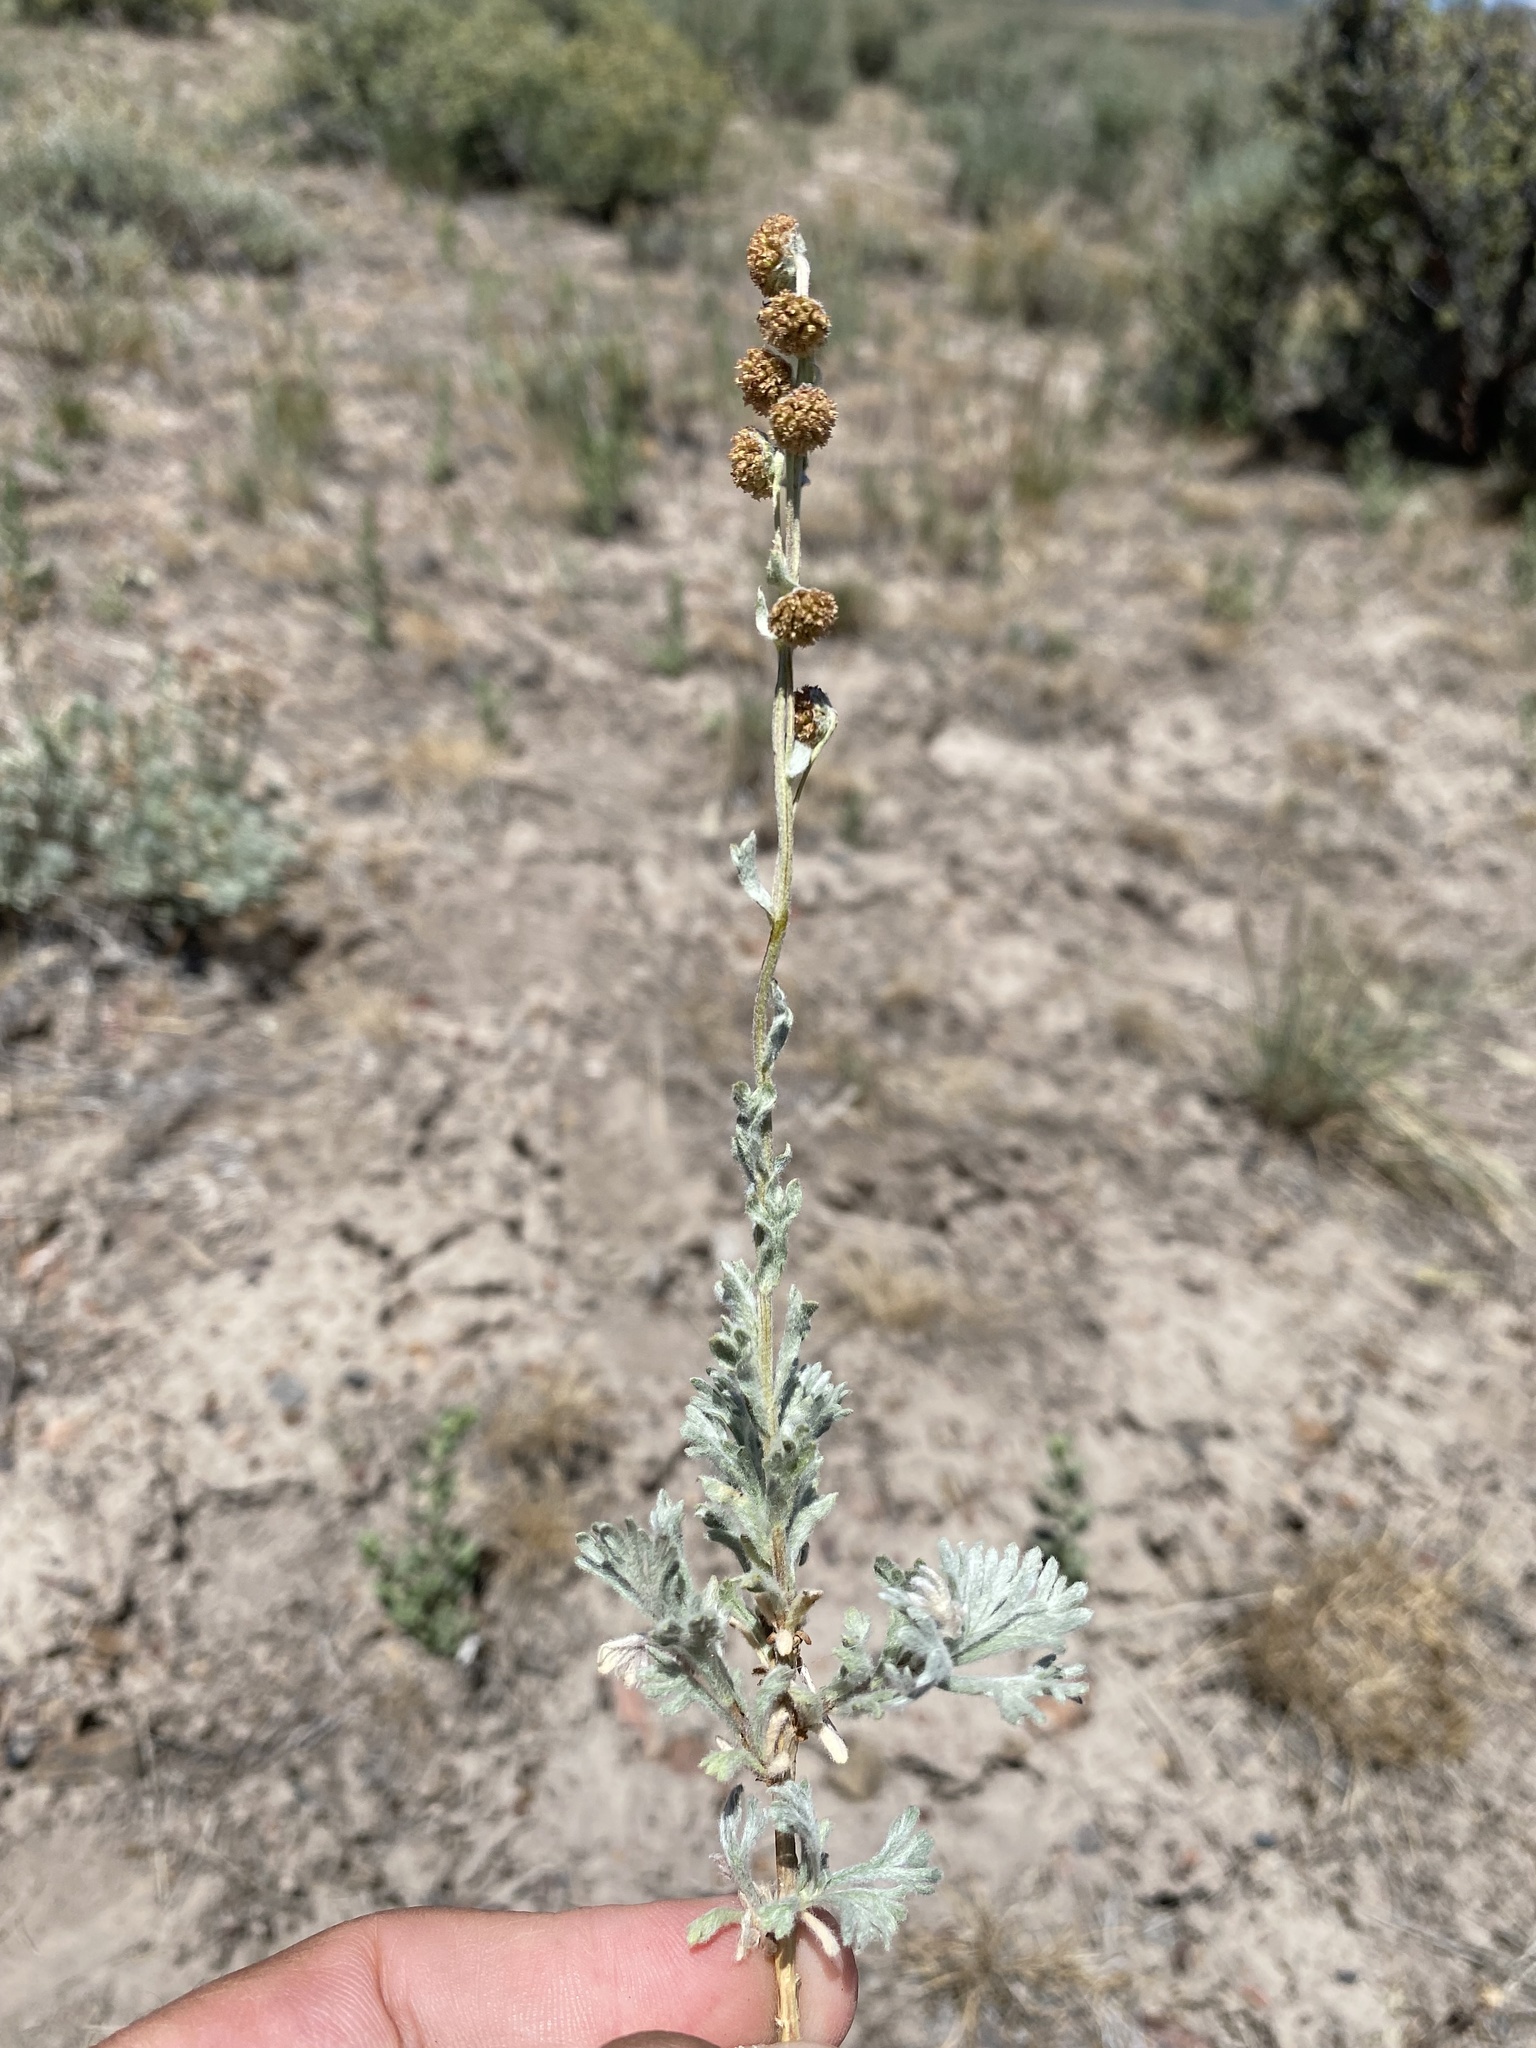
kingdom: Plantae
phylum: Tracheophyta
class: Magnoliopsida
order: Asterales
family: Asteraceae
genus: Artemisia
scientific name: Artemisia papposa
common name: Owyhee-sage
